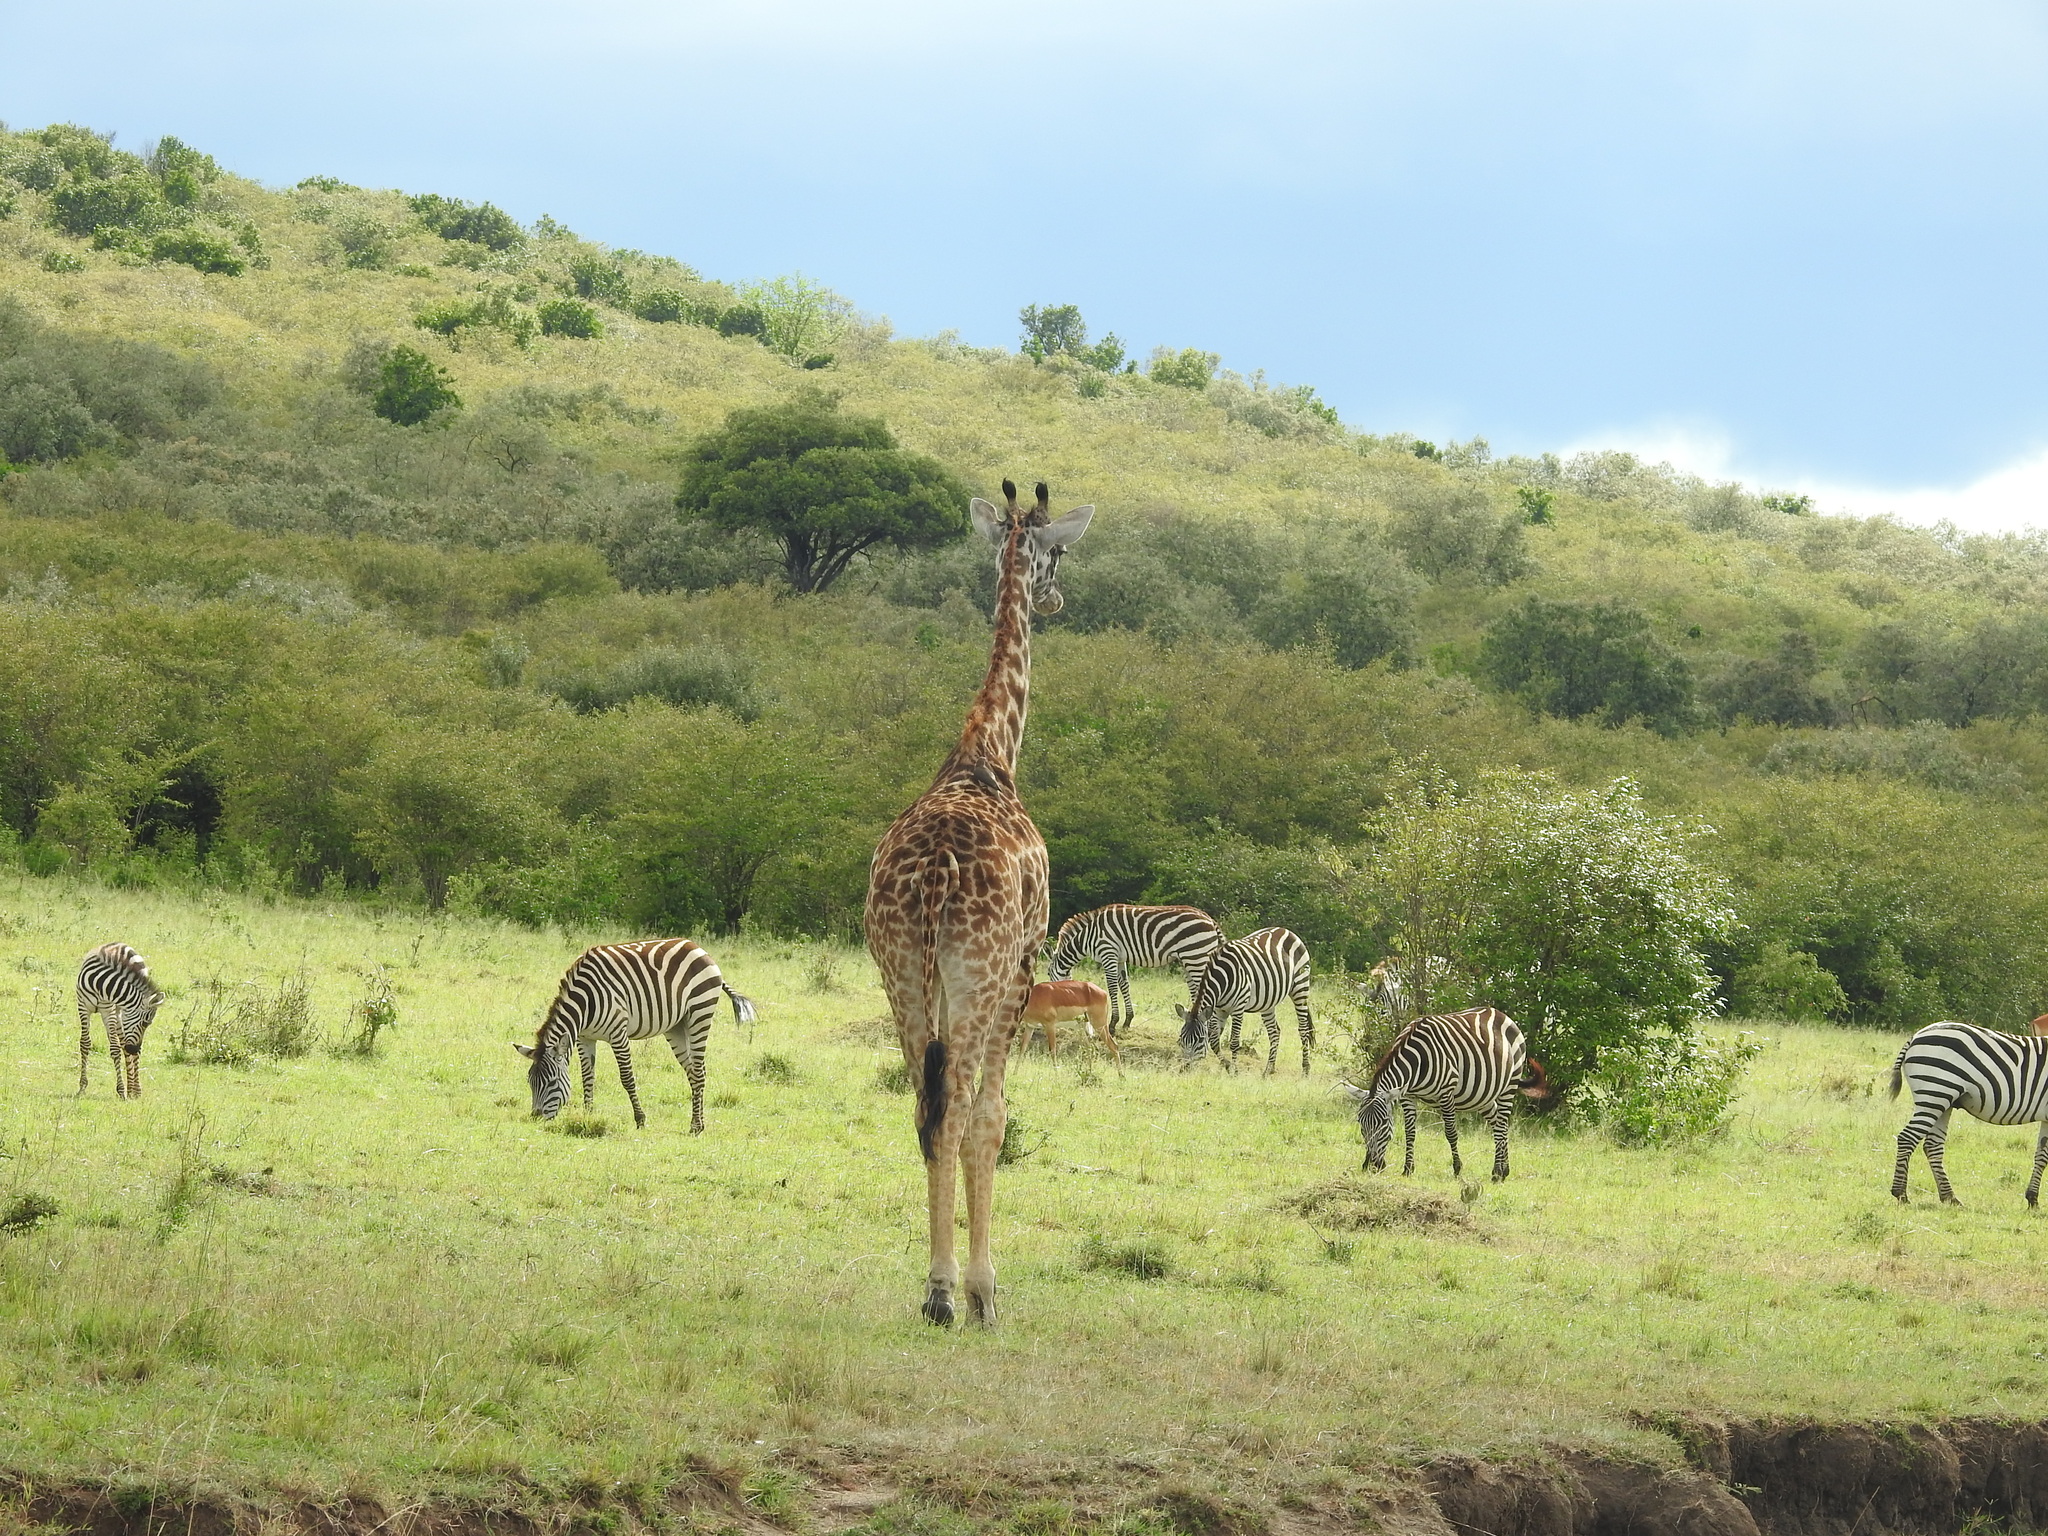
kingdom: Animalia
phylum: Chordata
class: Mammalia
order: Artiodactyla
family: Giraffidae
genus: Giraffa
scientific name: Giraffa tippelskirchi
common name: Masai giraffe
